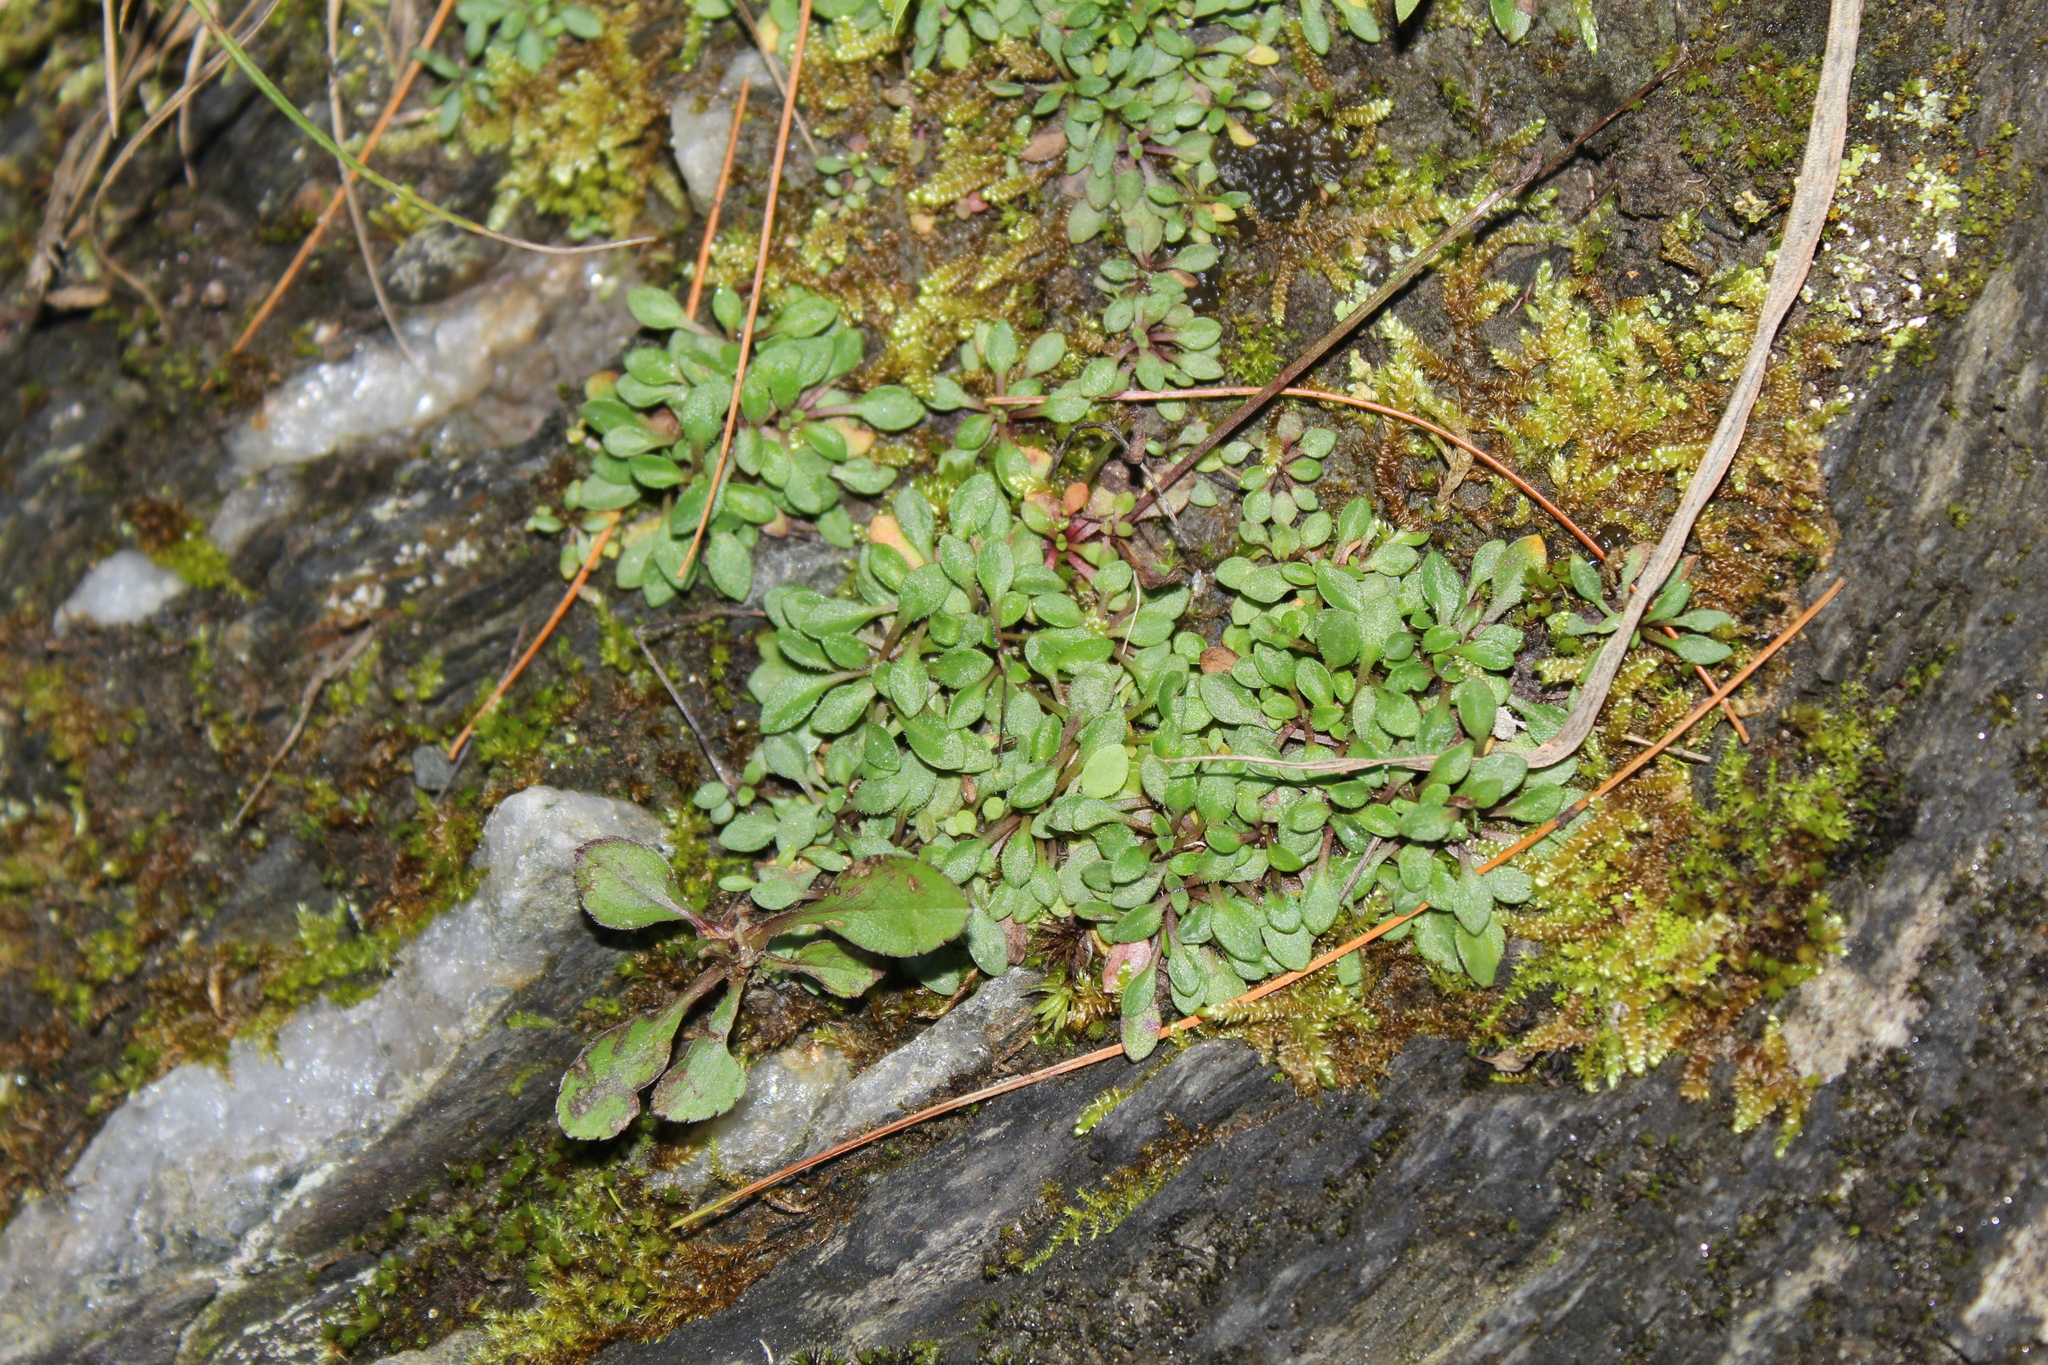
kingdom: Plantae
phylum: Tracheophyta
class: Magnoliopsida
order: Gentianales
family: Rubiaceae
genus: Houstonia
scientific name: Houstonia caerulea
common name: Bluets
